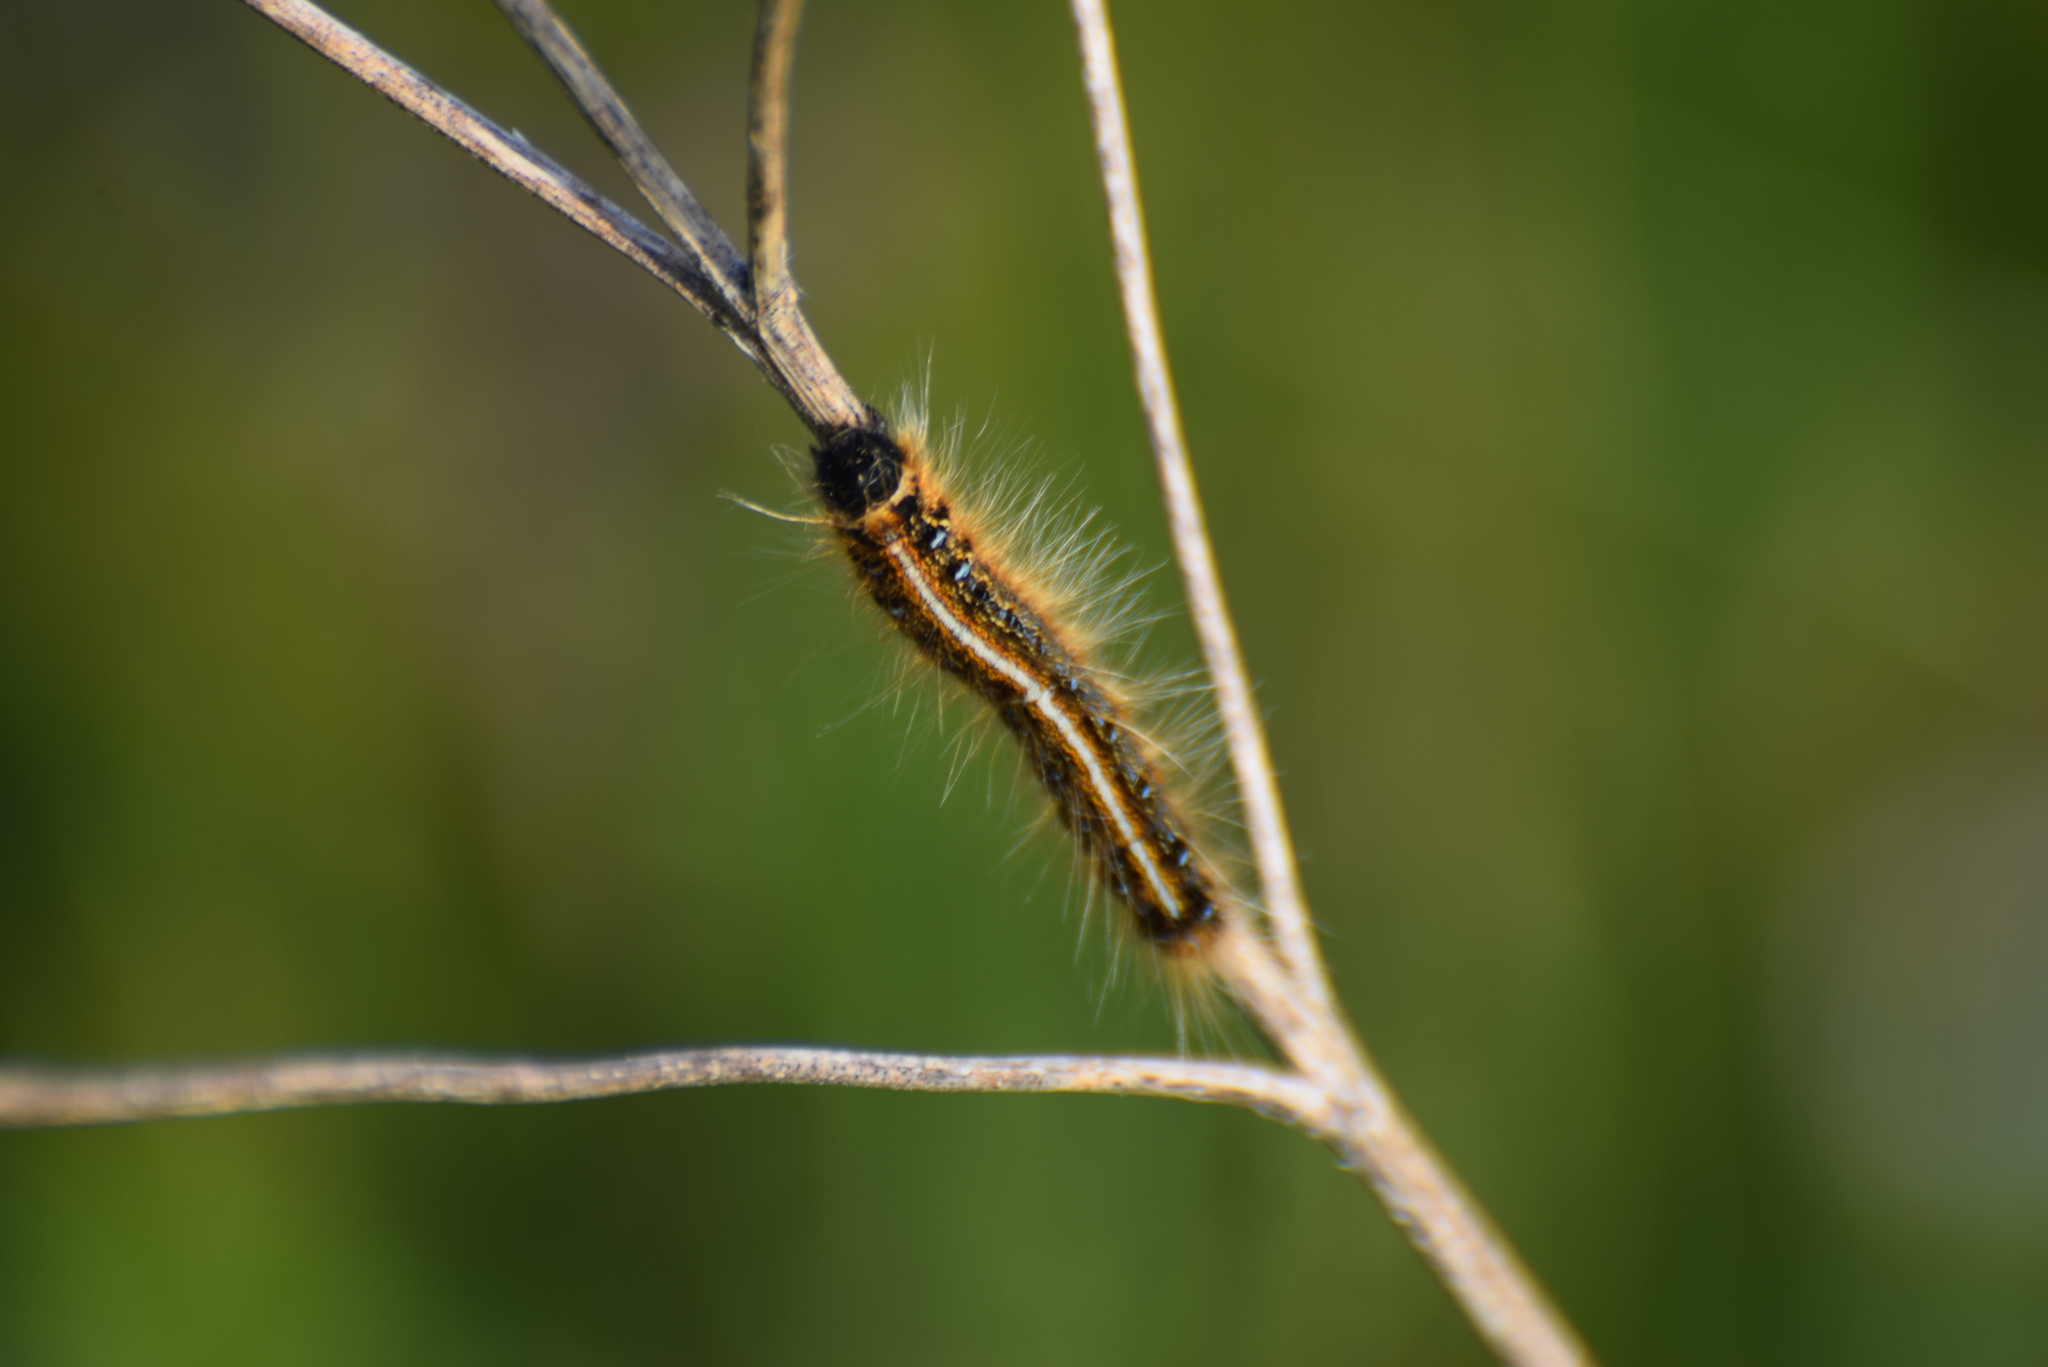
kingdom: Animalia
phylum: Arthropoda
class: Insecta
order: Lepidoptera
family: Lasiocampidae
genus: Malacosoma
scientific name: Malacosoma americana
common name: Eastern tent caterpillar moth
